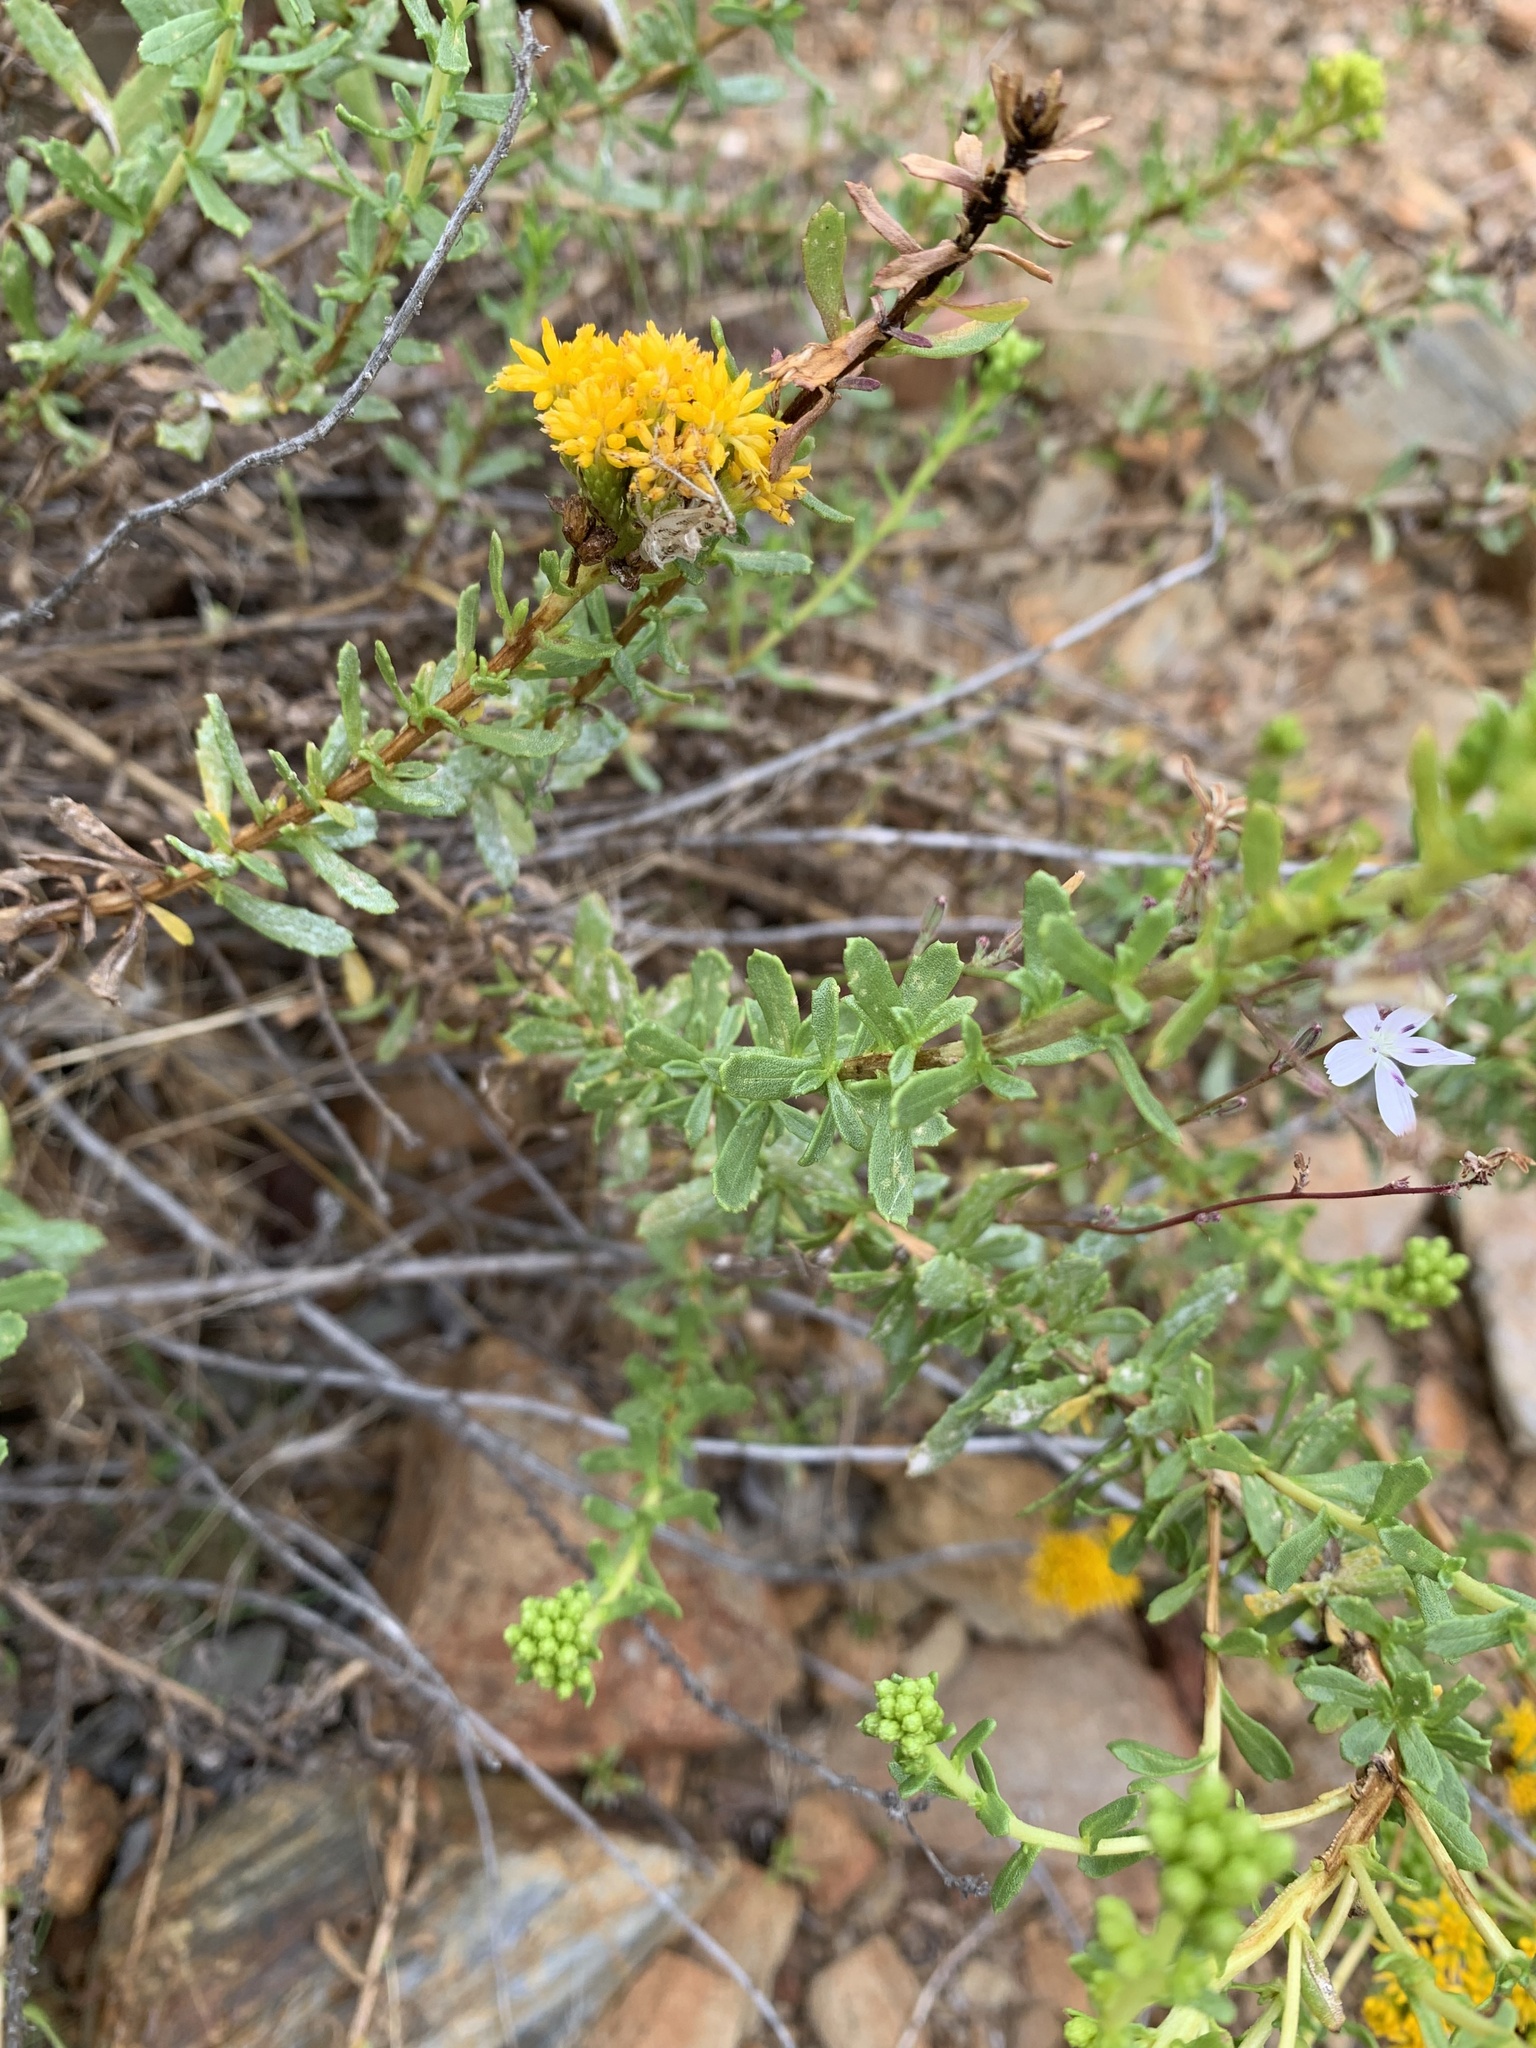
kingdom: Plantae
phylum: Tracheophyta
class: Magnoliopsida
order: Asterales
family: Asteraceae
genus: Isocoma
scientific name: Isocoma menziesii
